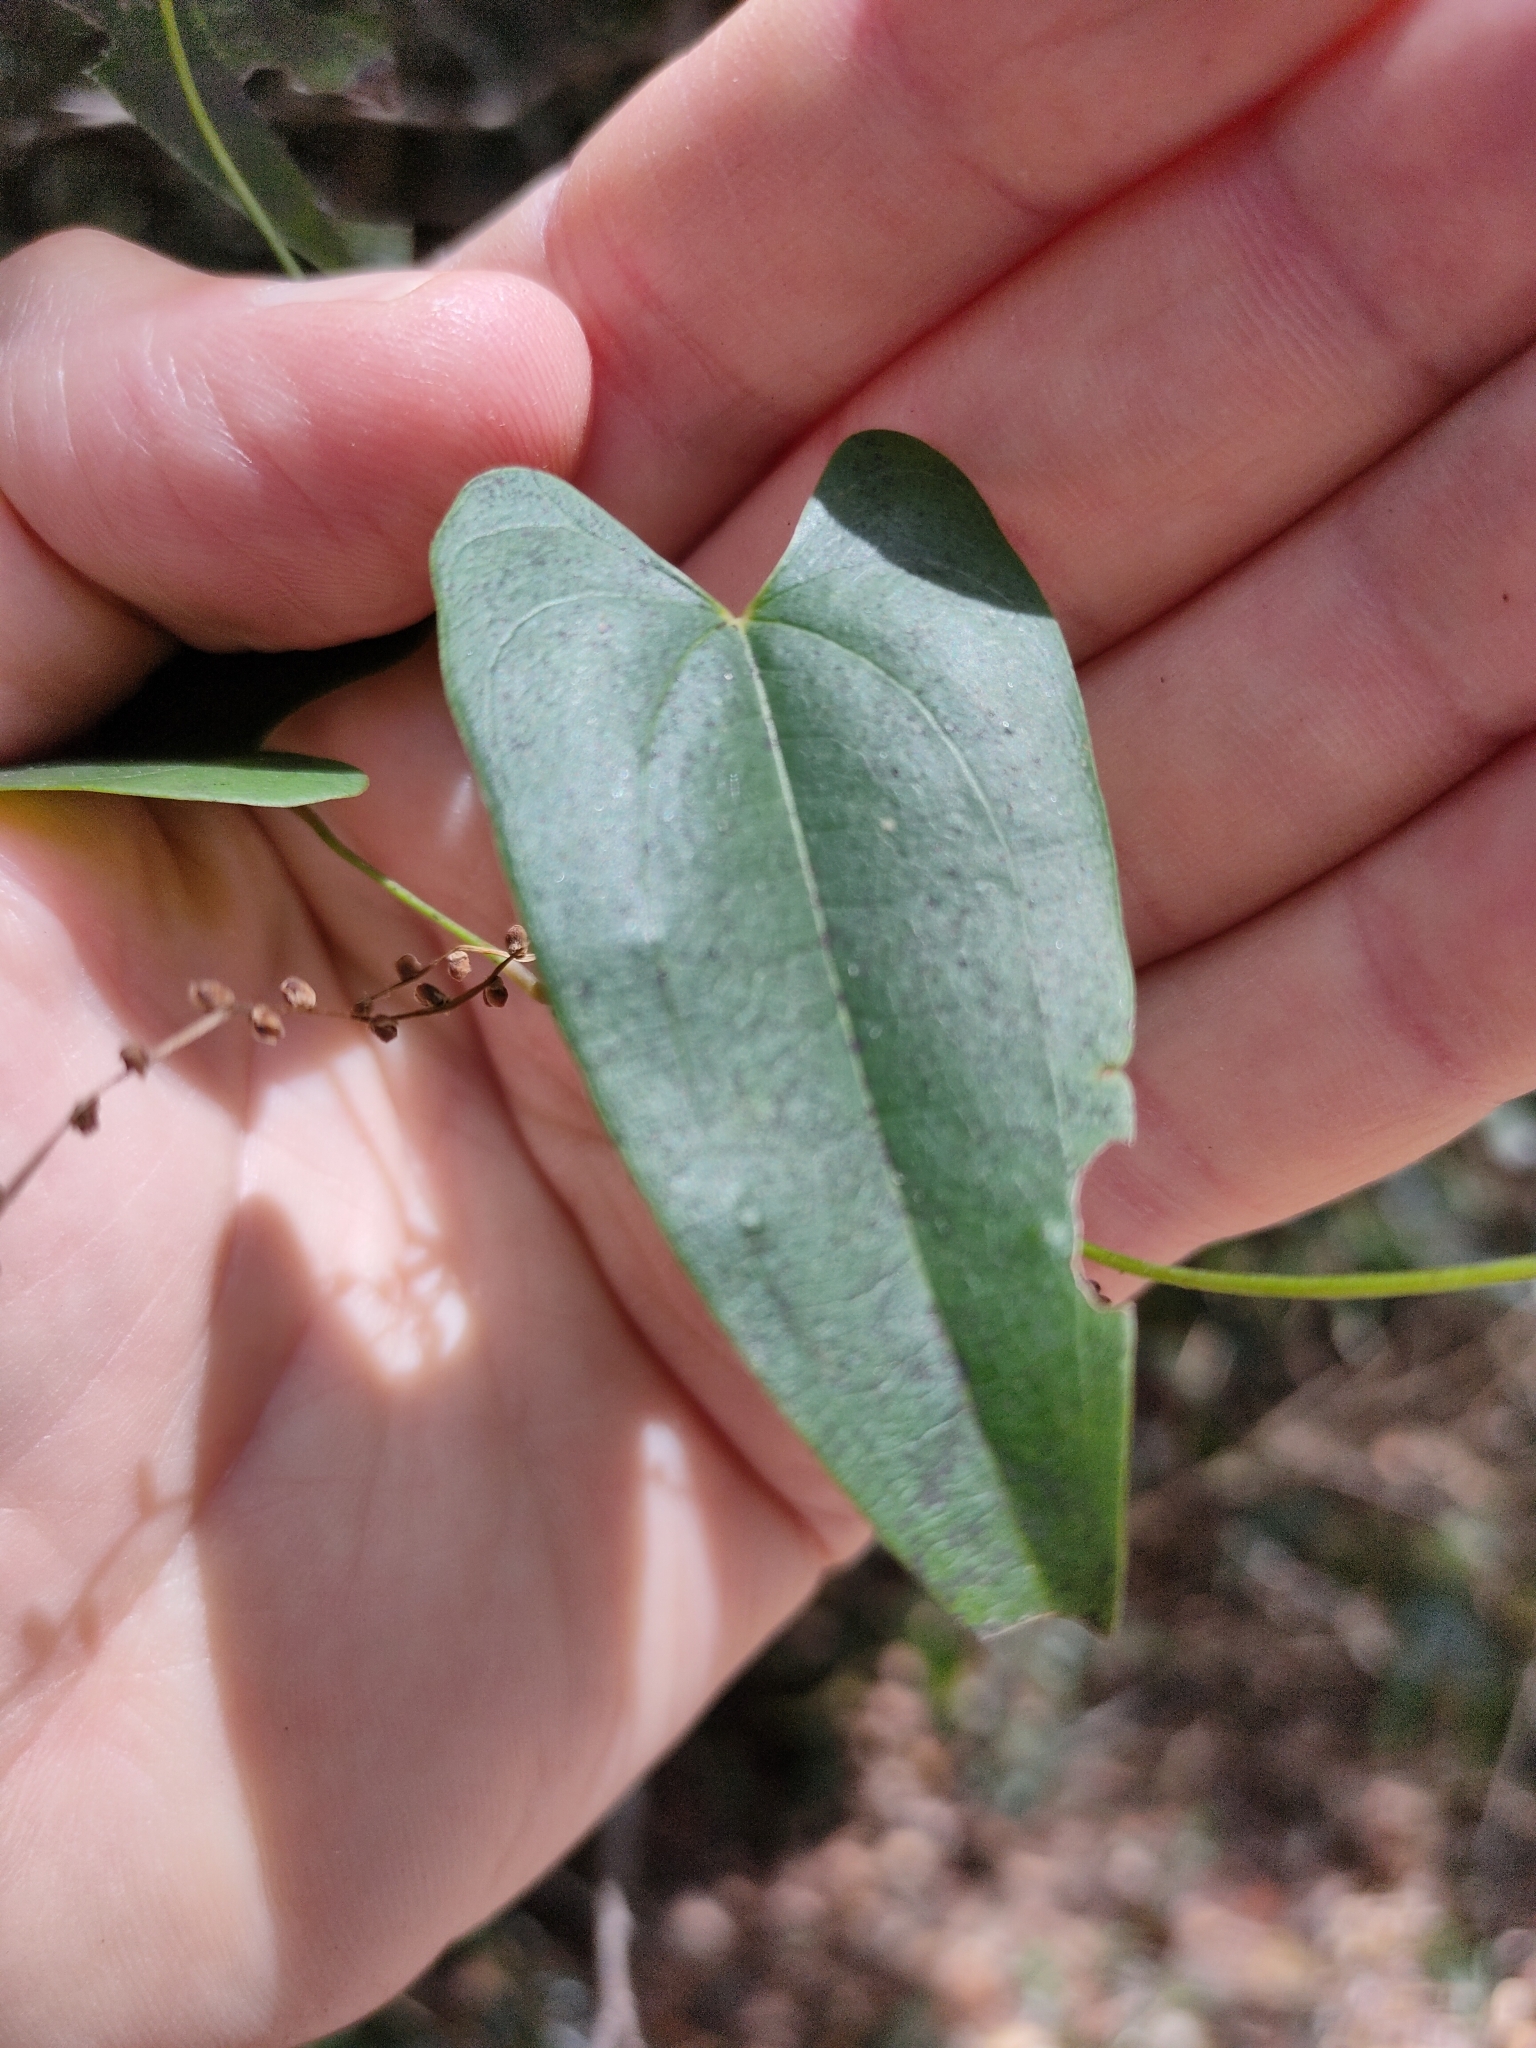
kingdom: Plantae
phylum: Tracheophyta
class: Liliopsida
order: Dioscoreales
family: Dioscoreaceae
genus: Dioscorea
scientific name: Dioscorea transversa
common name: Long yam
